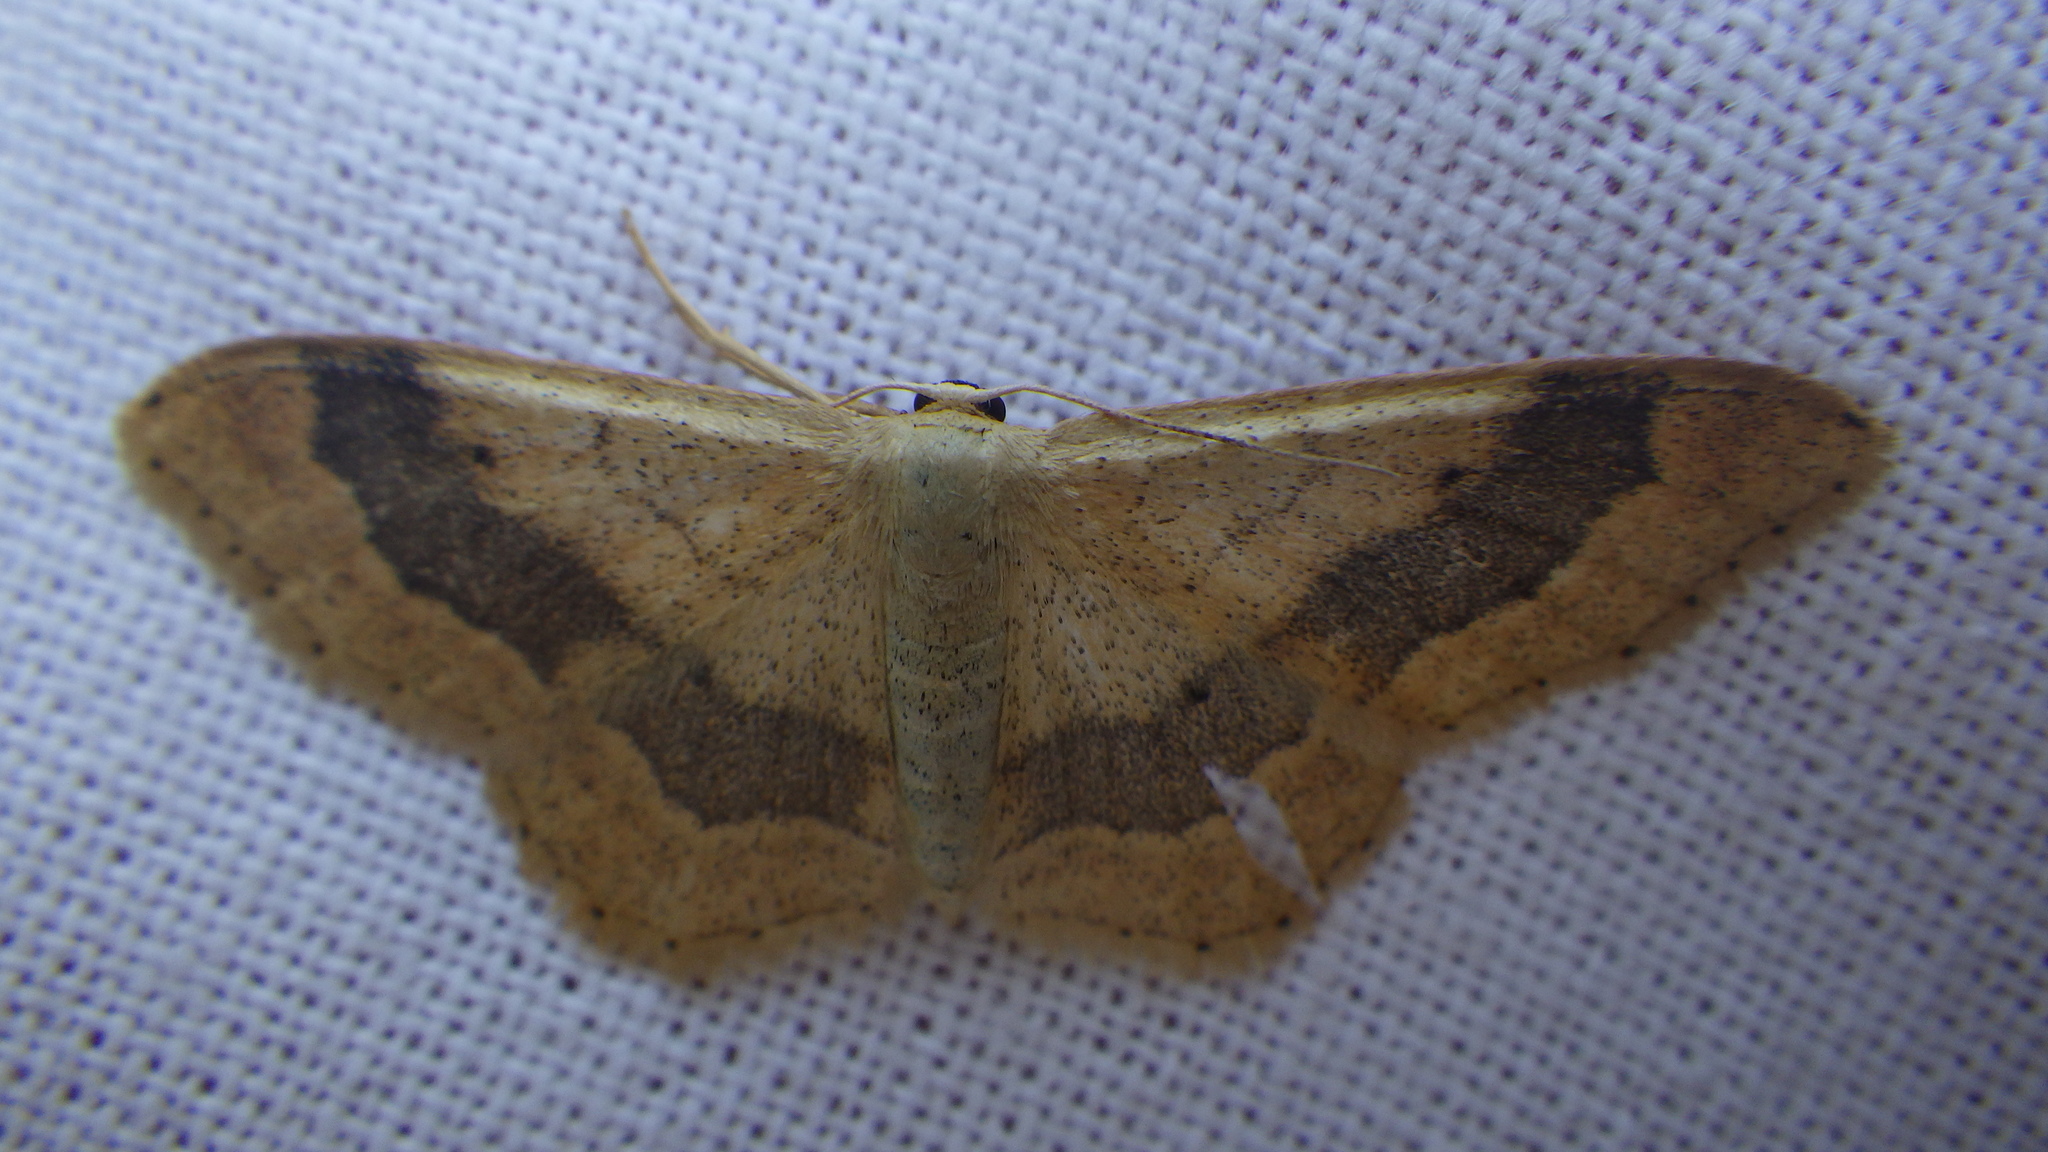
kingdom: Animalia
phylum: Arthropoda
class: Insecta
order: Lepidoptera
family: Geometridae
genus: Idaea
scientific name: Idaea aversata
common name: Riband wave
